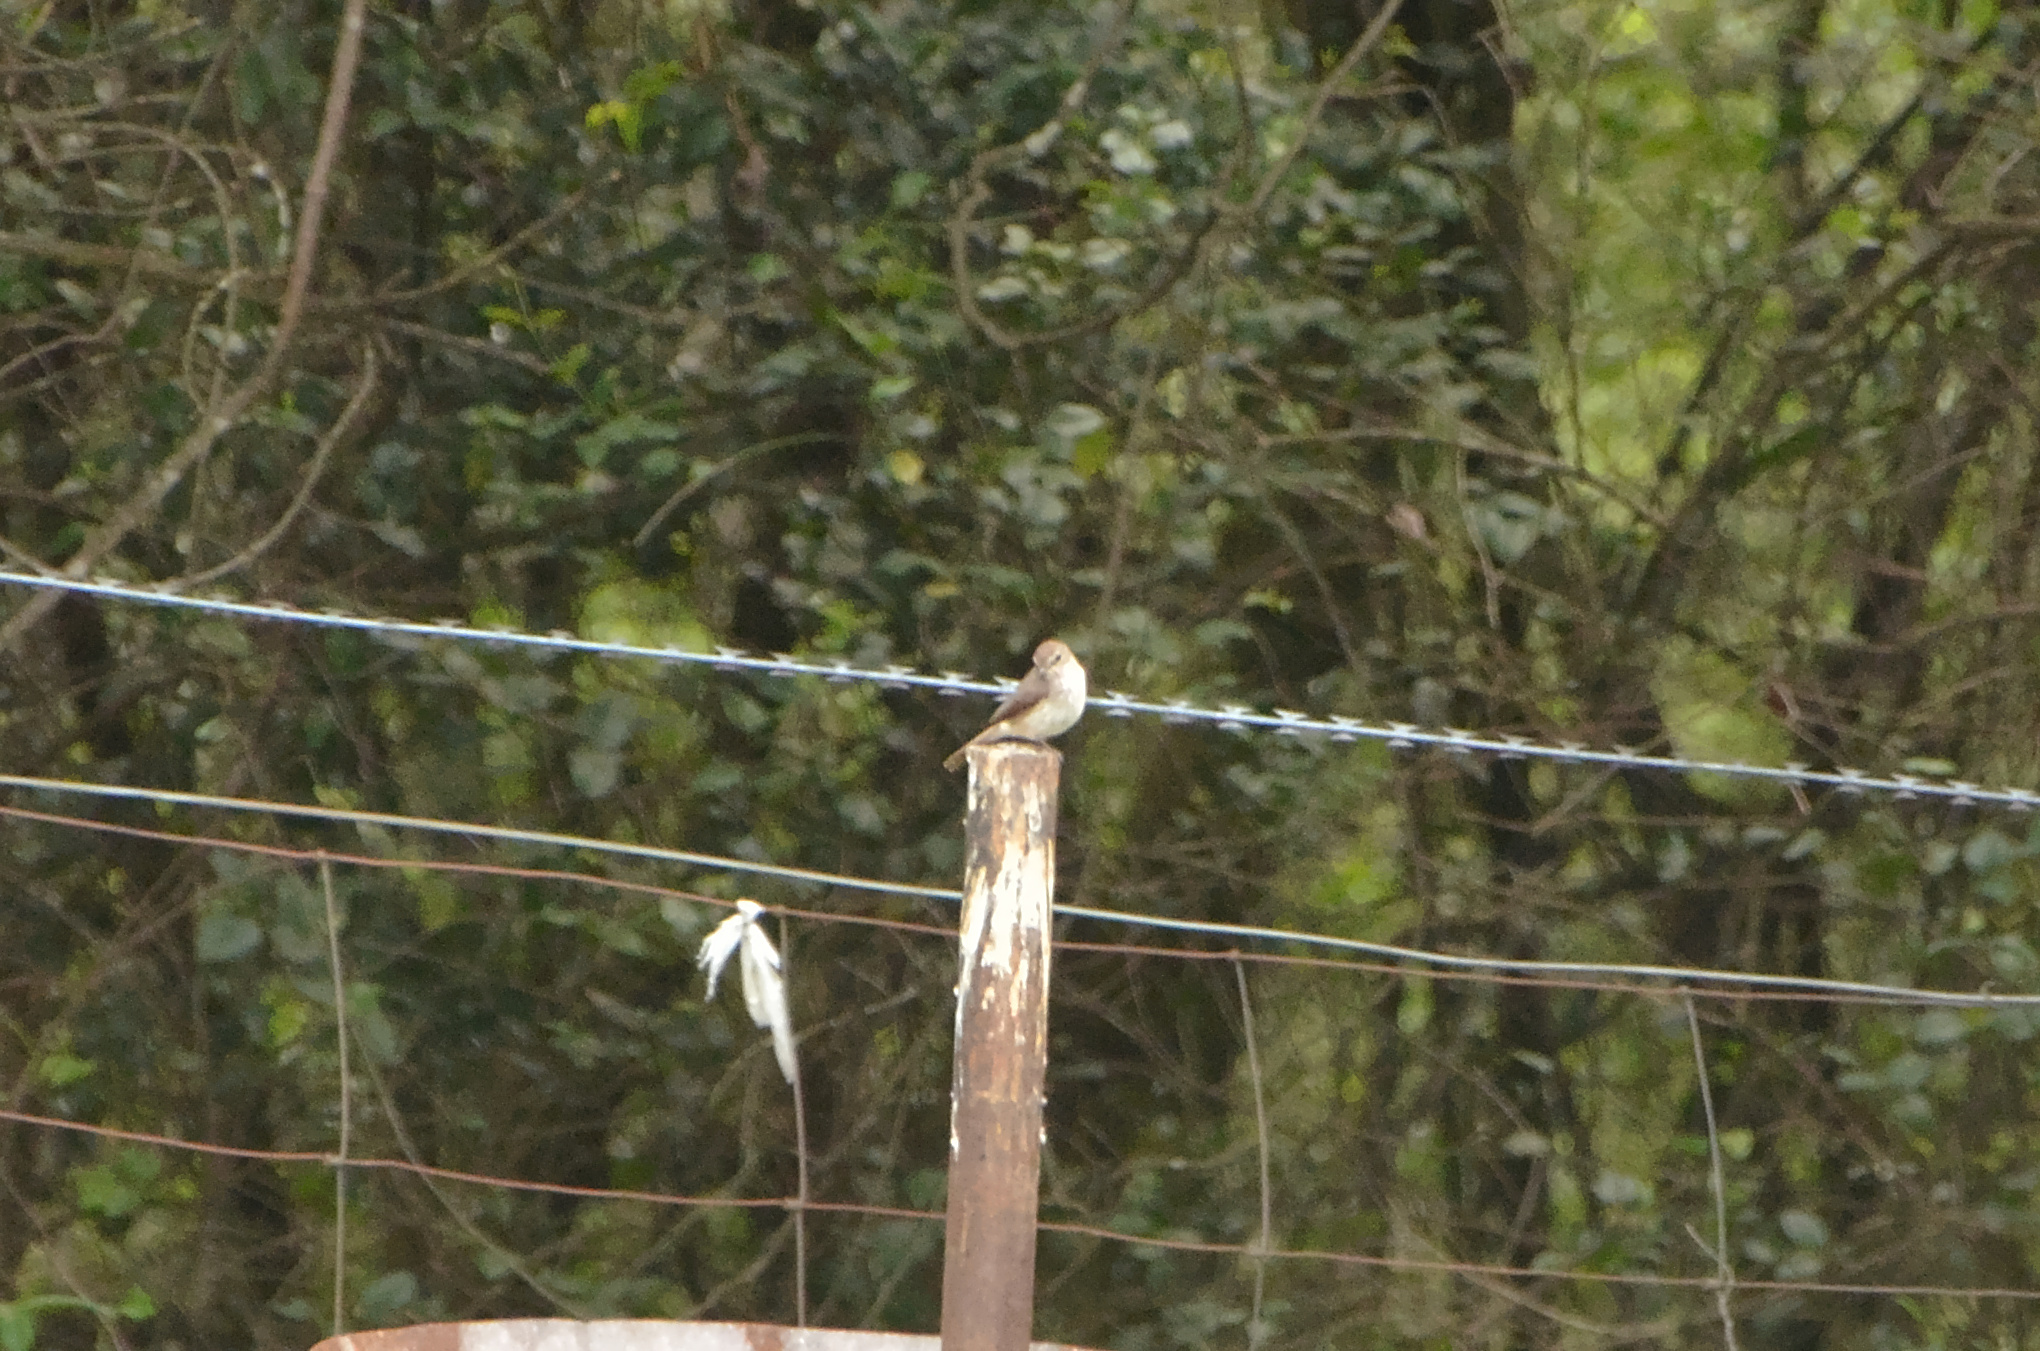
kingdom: Animalia
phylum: Chordata
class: Aves
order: Passeriformes
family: Muscicapidae
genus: Muscicapa
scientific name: Muscicapa adusta
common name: African dusky flycatcher
